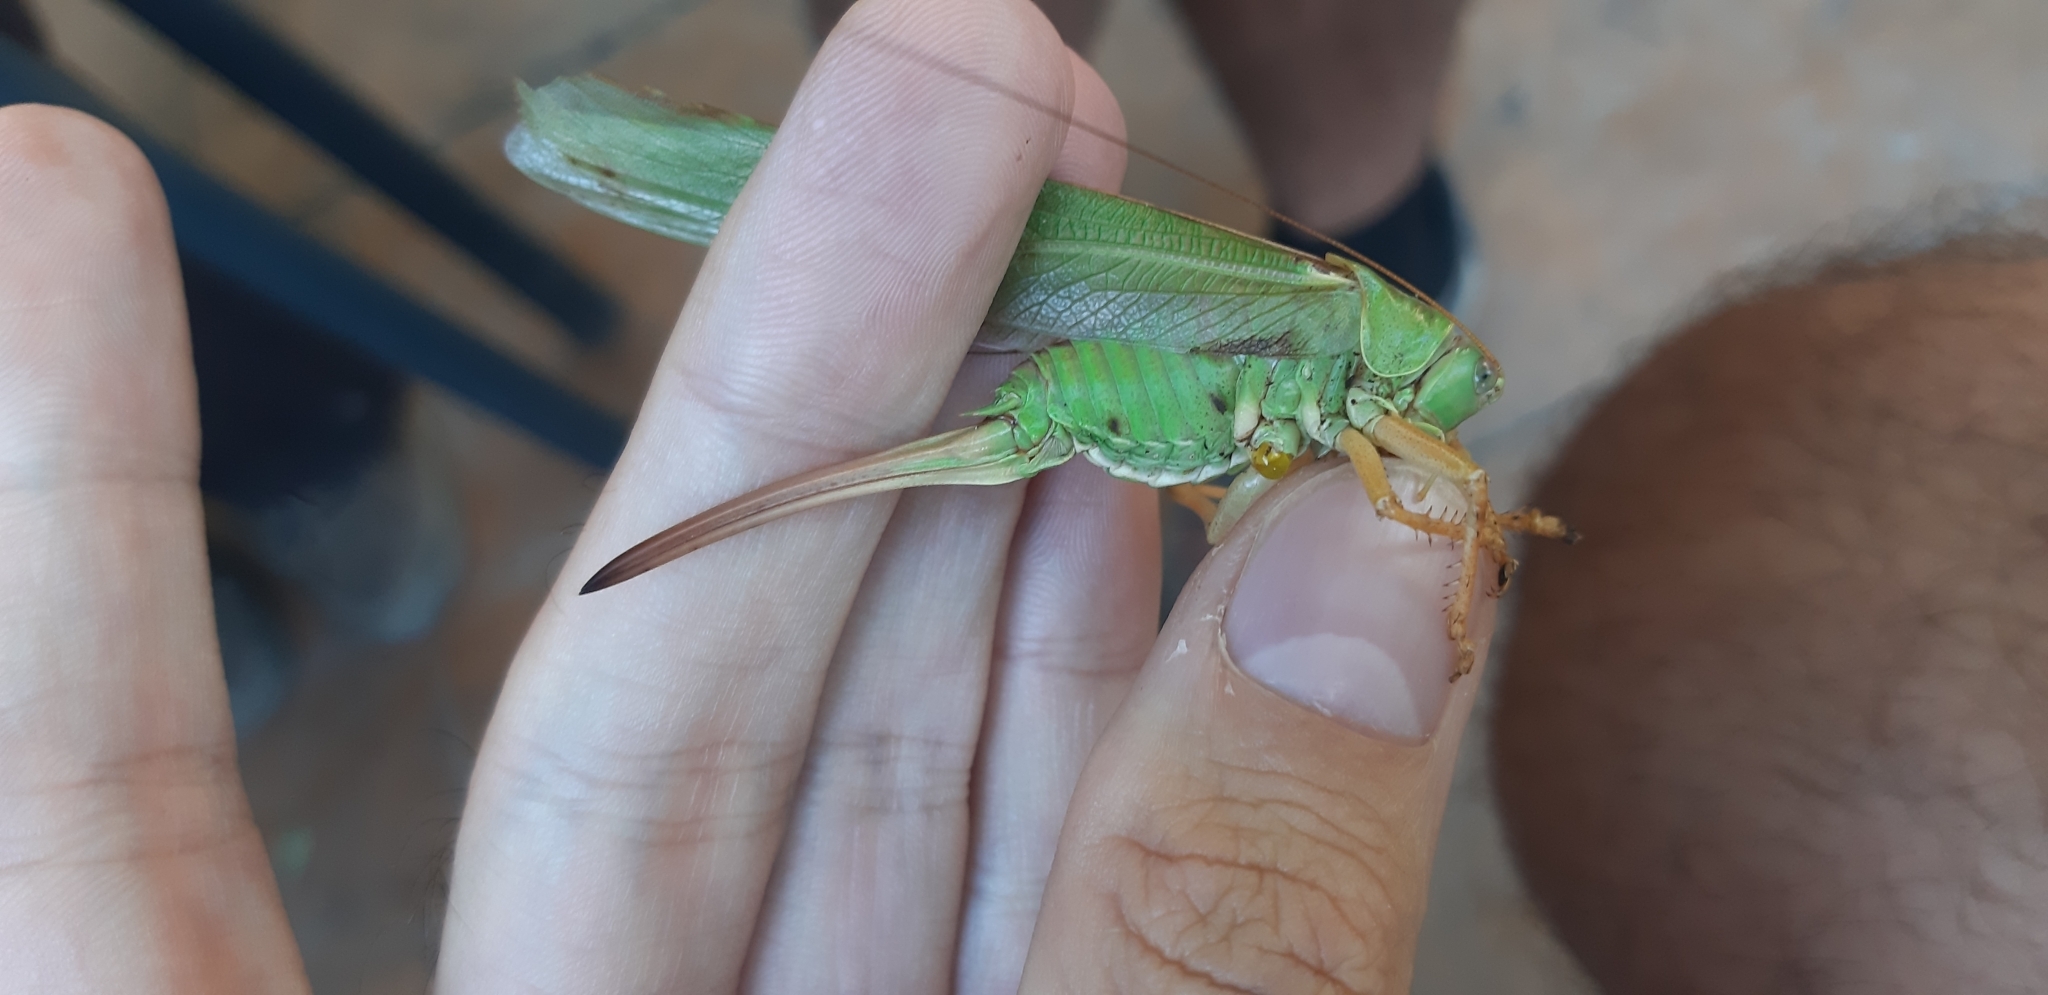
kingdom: Animalia
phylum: Arthropoda
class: Insecta
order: Orthoptera
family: Tettigoniidae
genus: Tettigonia
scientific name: Tettigonia viridissima
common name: Great green bush-cricket
